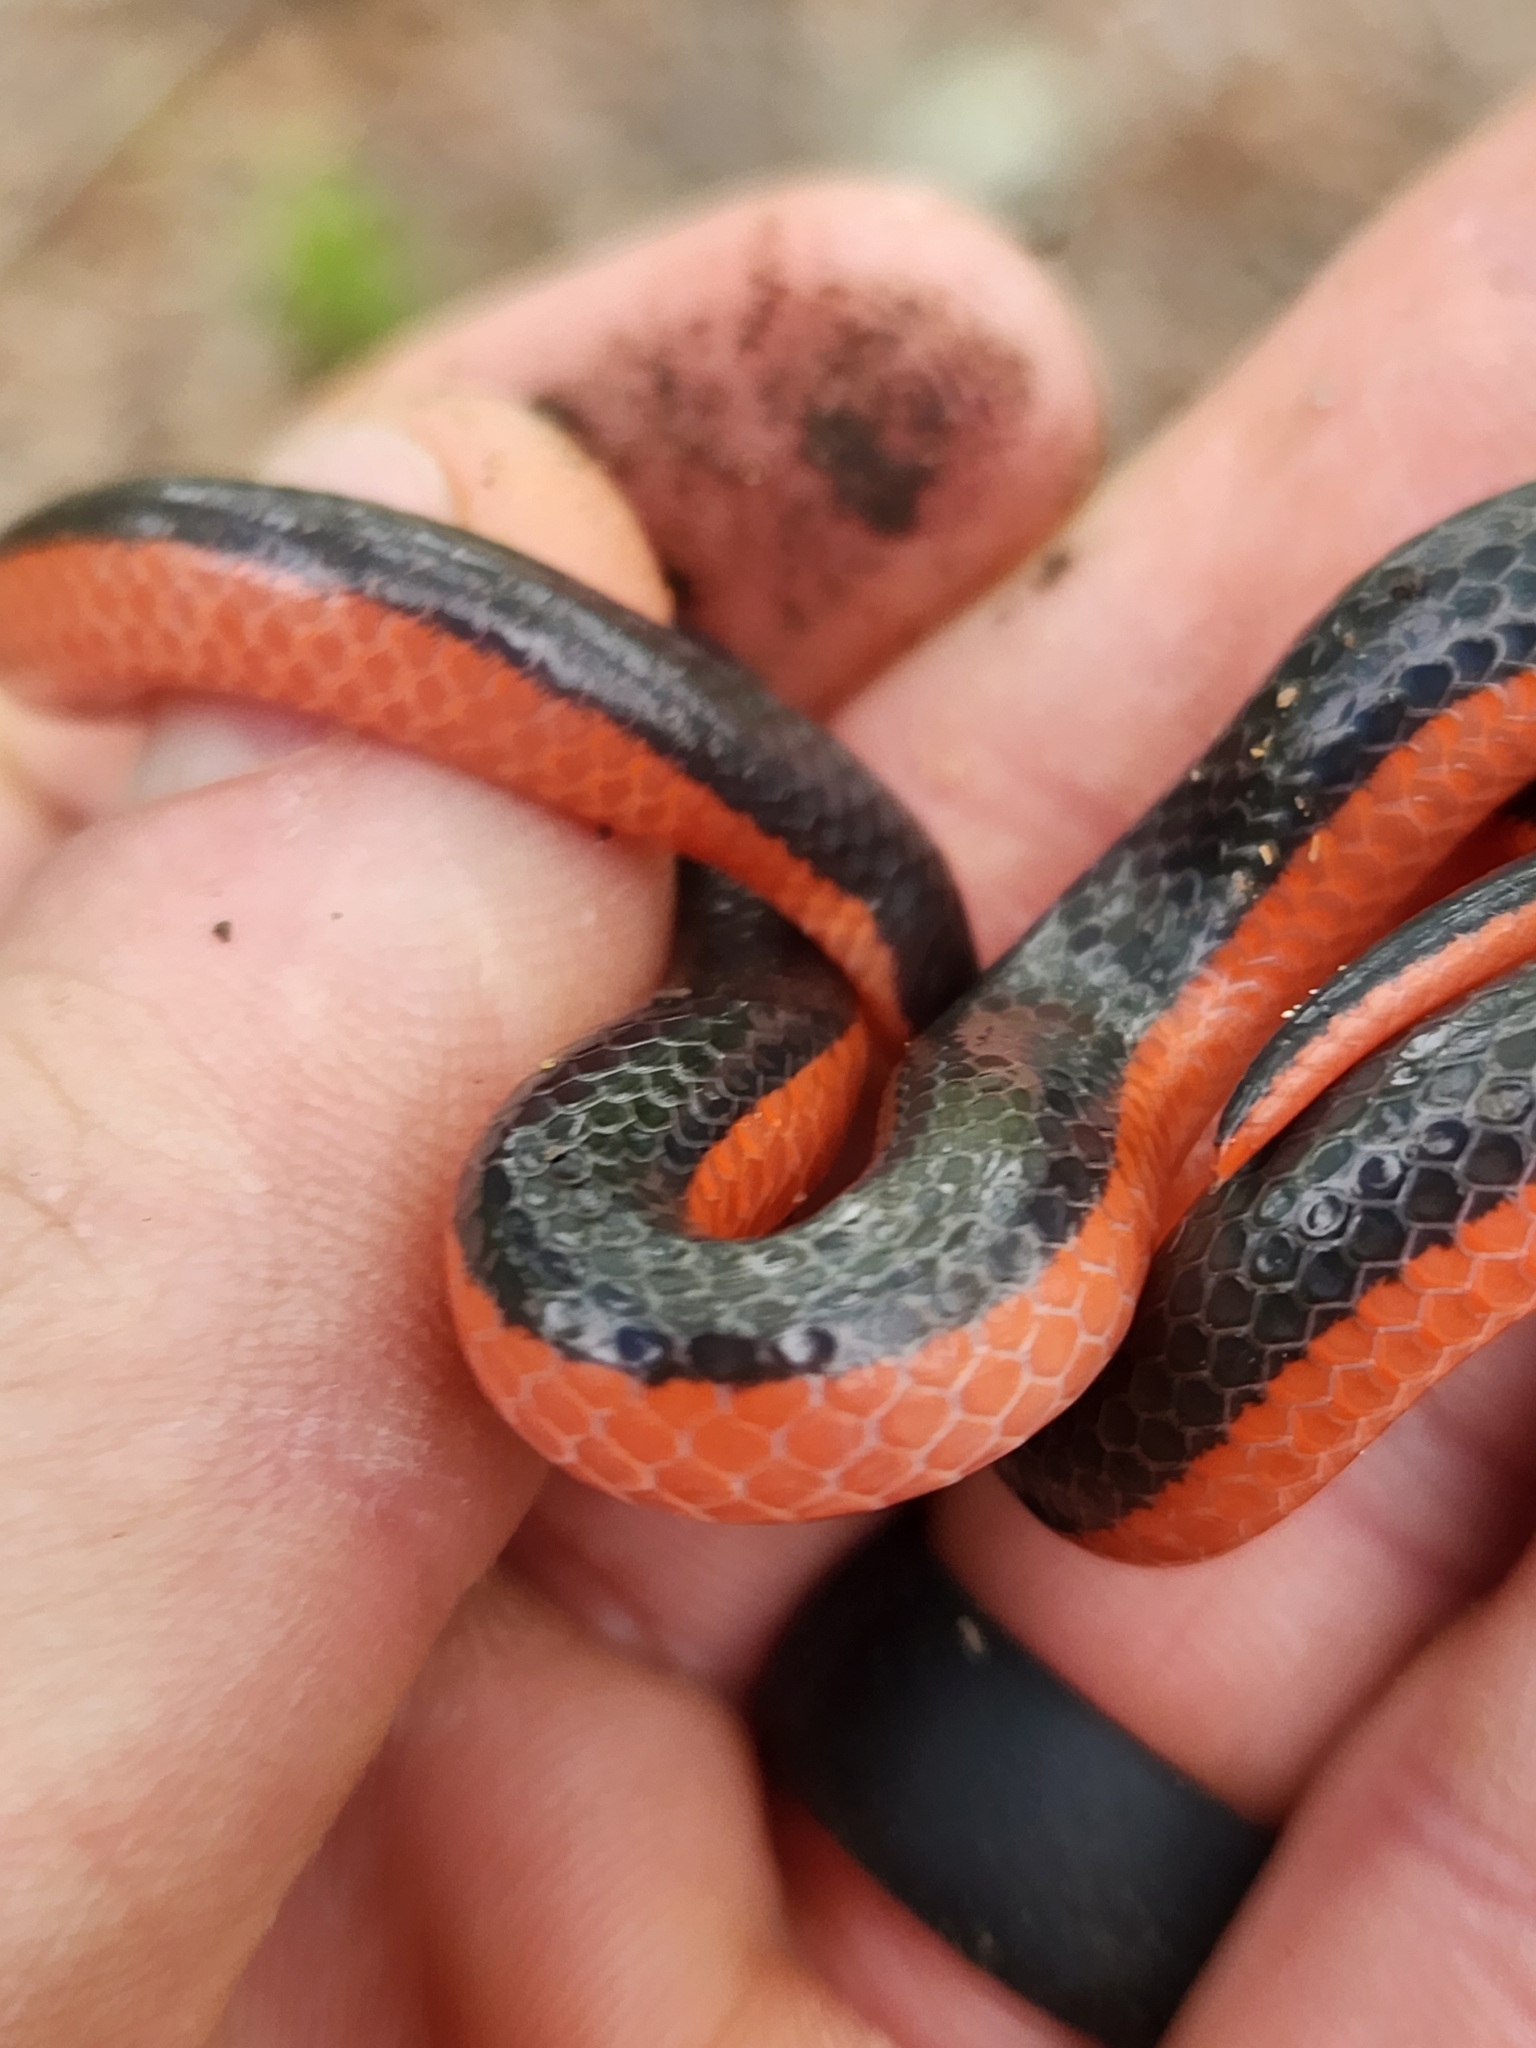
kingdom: Animalia
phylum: Chordata
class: Squamata
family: Colubridae
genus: Carphophis
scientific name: Carphophis vermis
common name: Western worm snake
